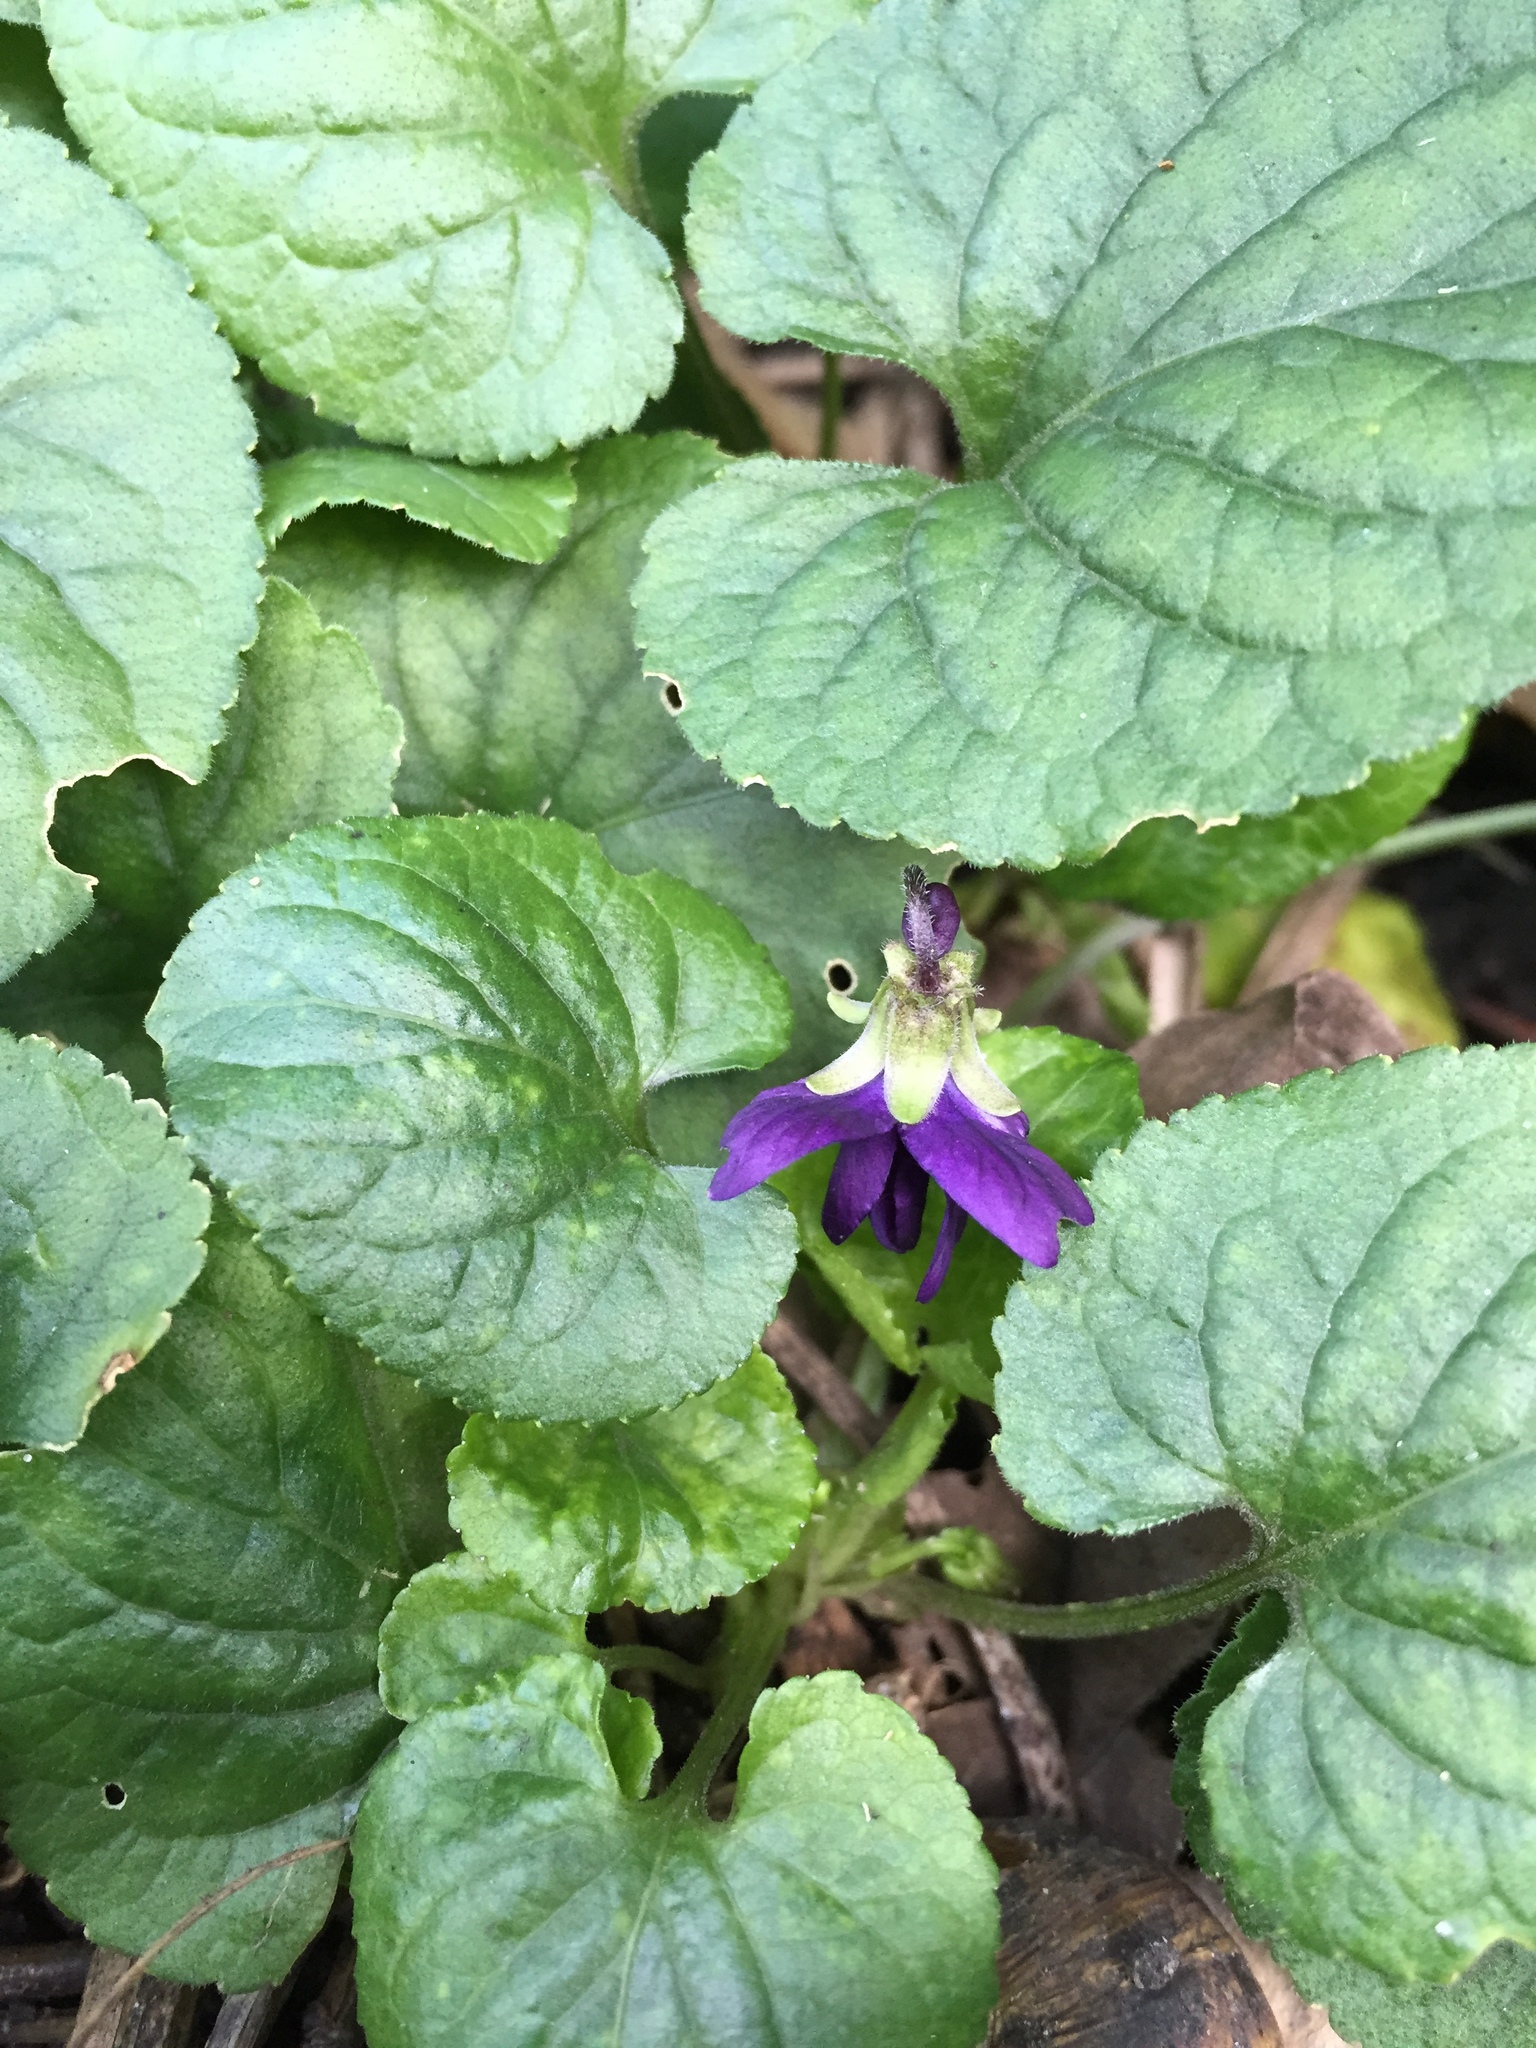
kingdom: Plantae
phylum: Tracheophyta
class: Magnoliopsida
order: Malpighiales
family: Violaceae
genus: Viola
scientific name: Viola odorata
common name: Sweet violet
